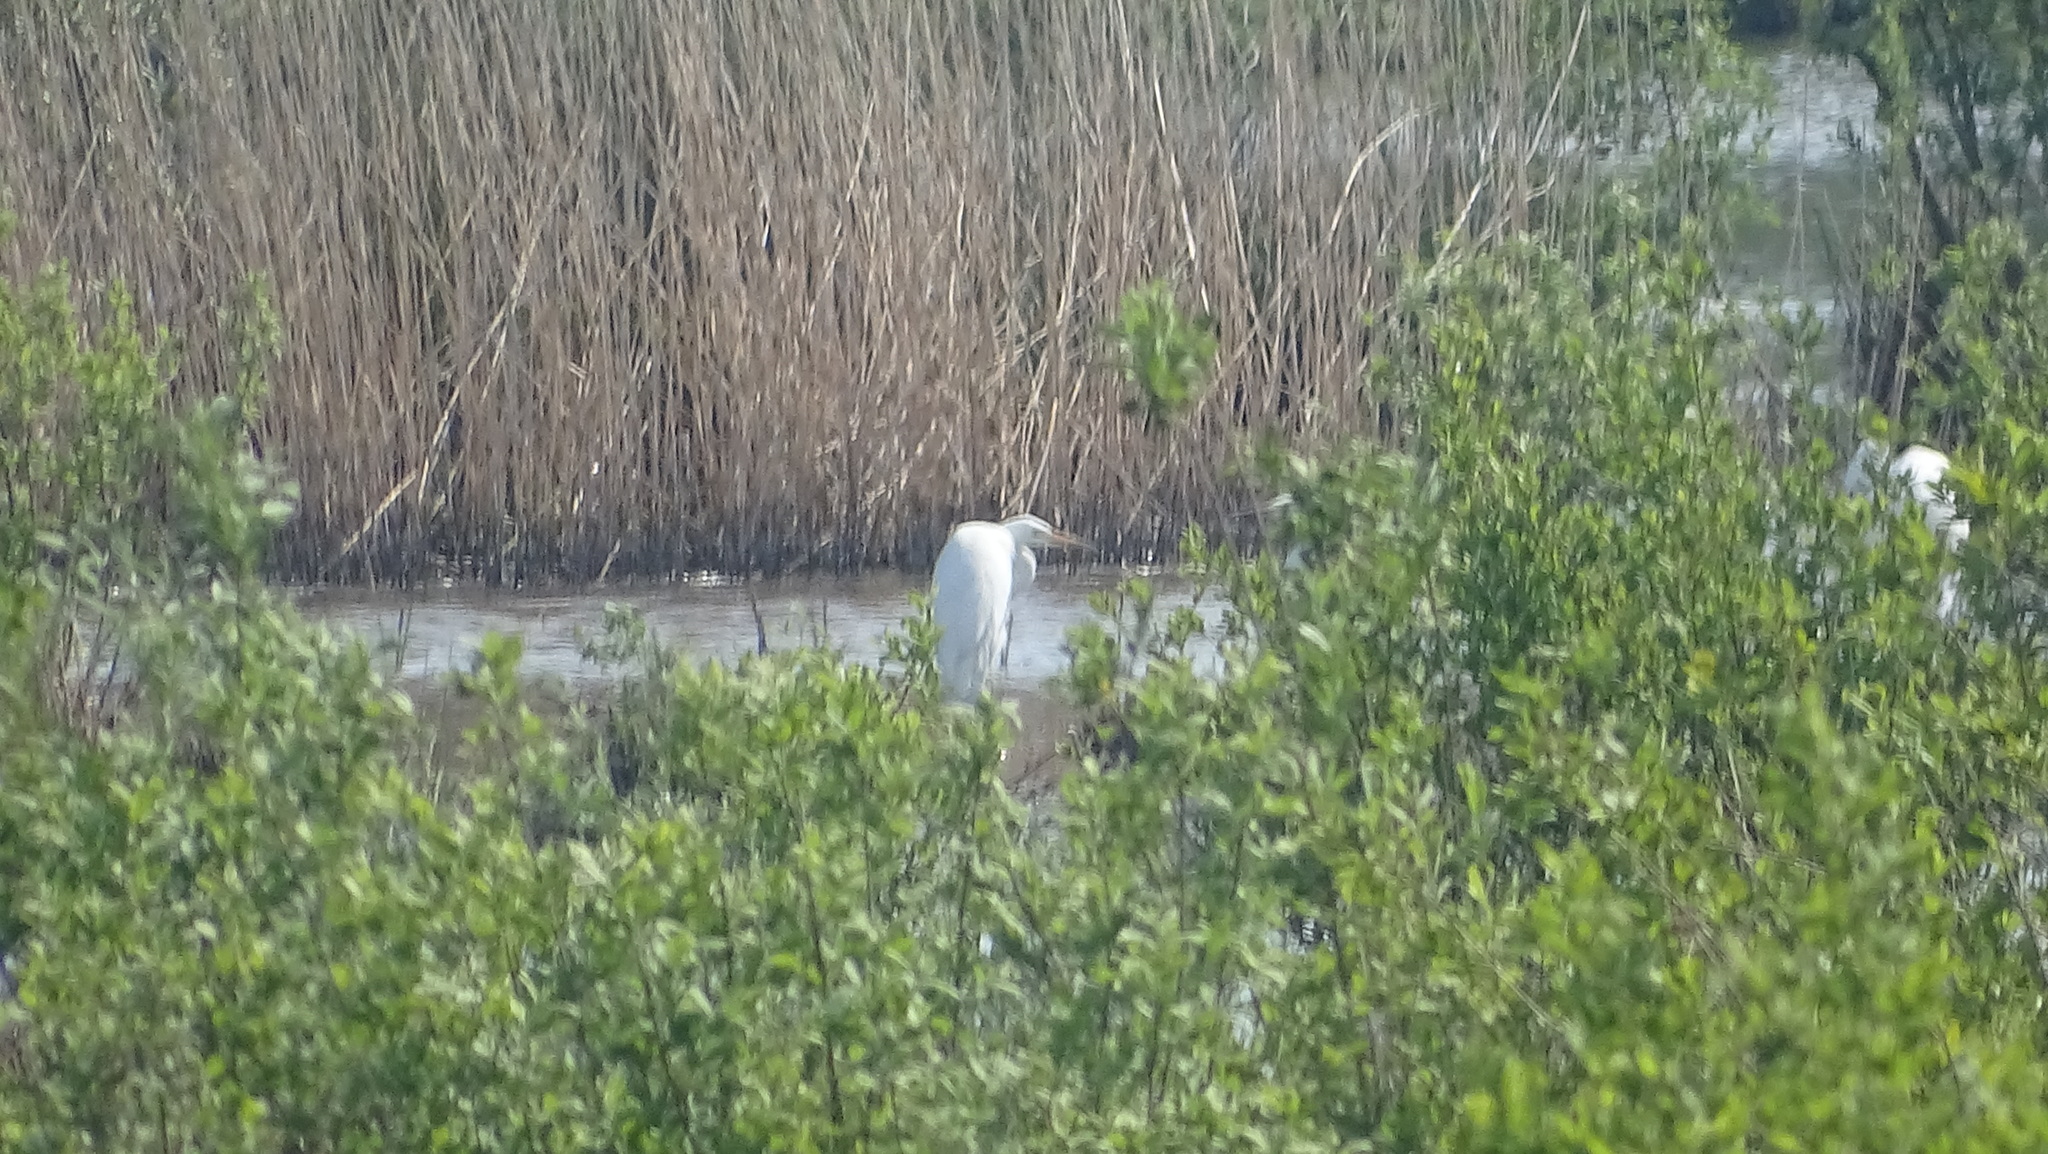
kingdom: Animalia
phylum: Chordata
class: Aves
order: Pelecaniformes
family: Ardeidae
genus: Ardea
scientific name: Ardea alba
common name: Great egret
